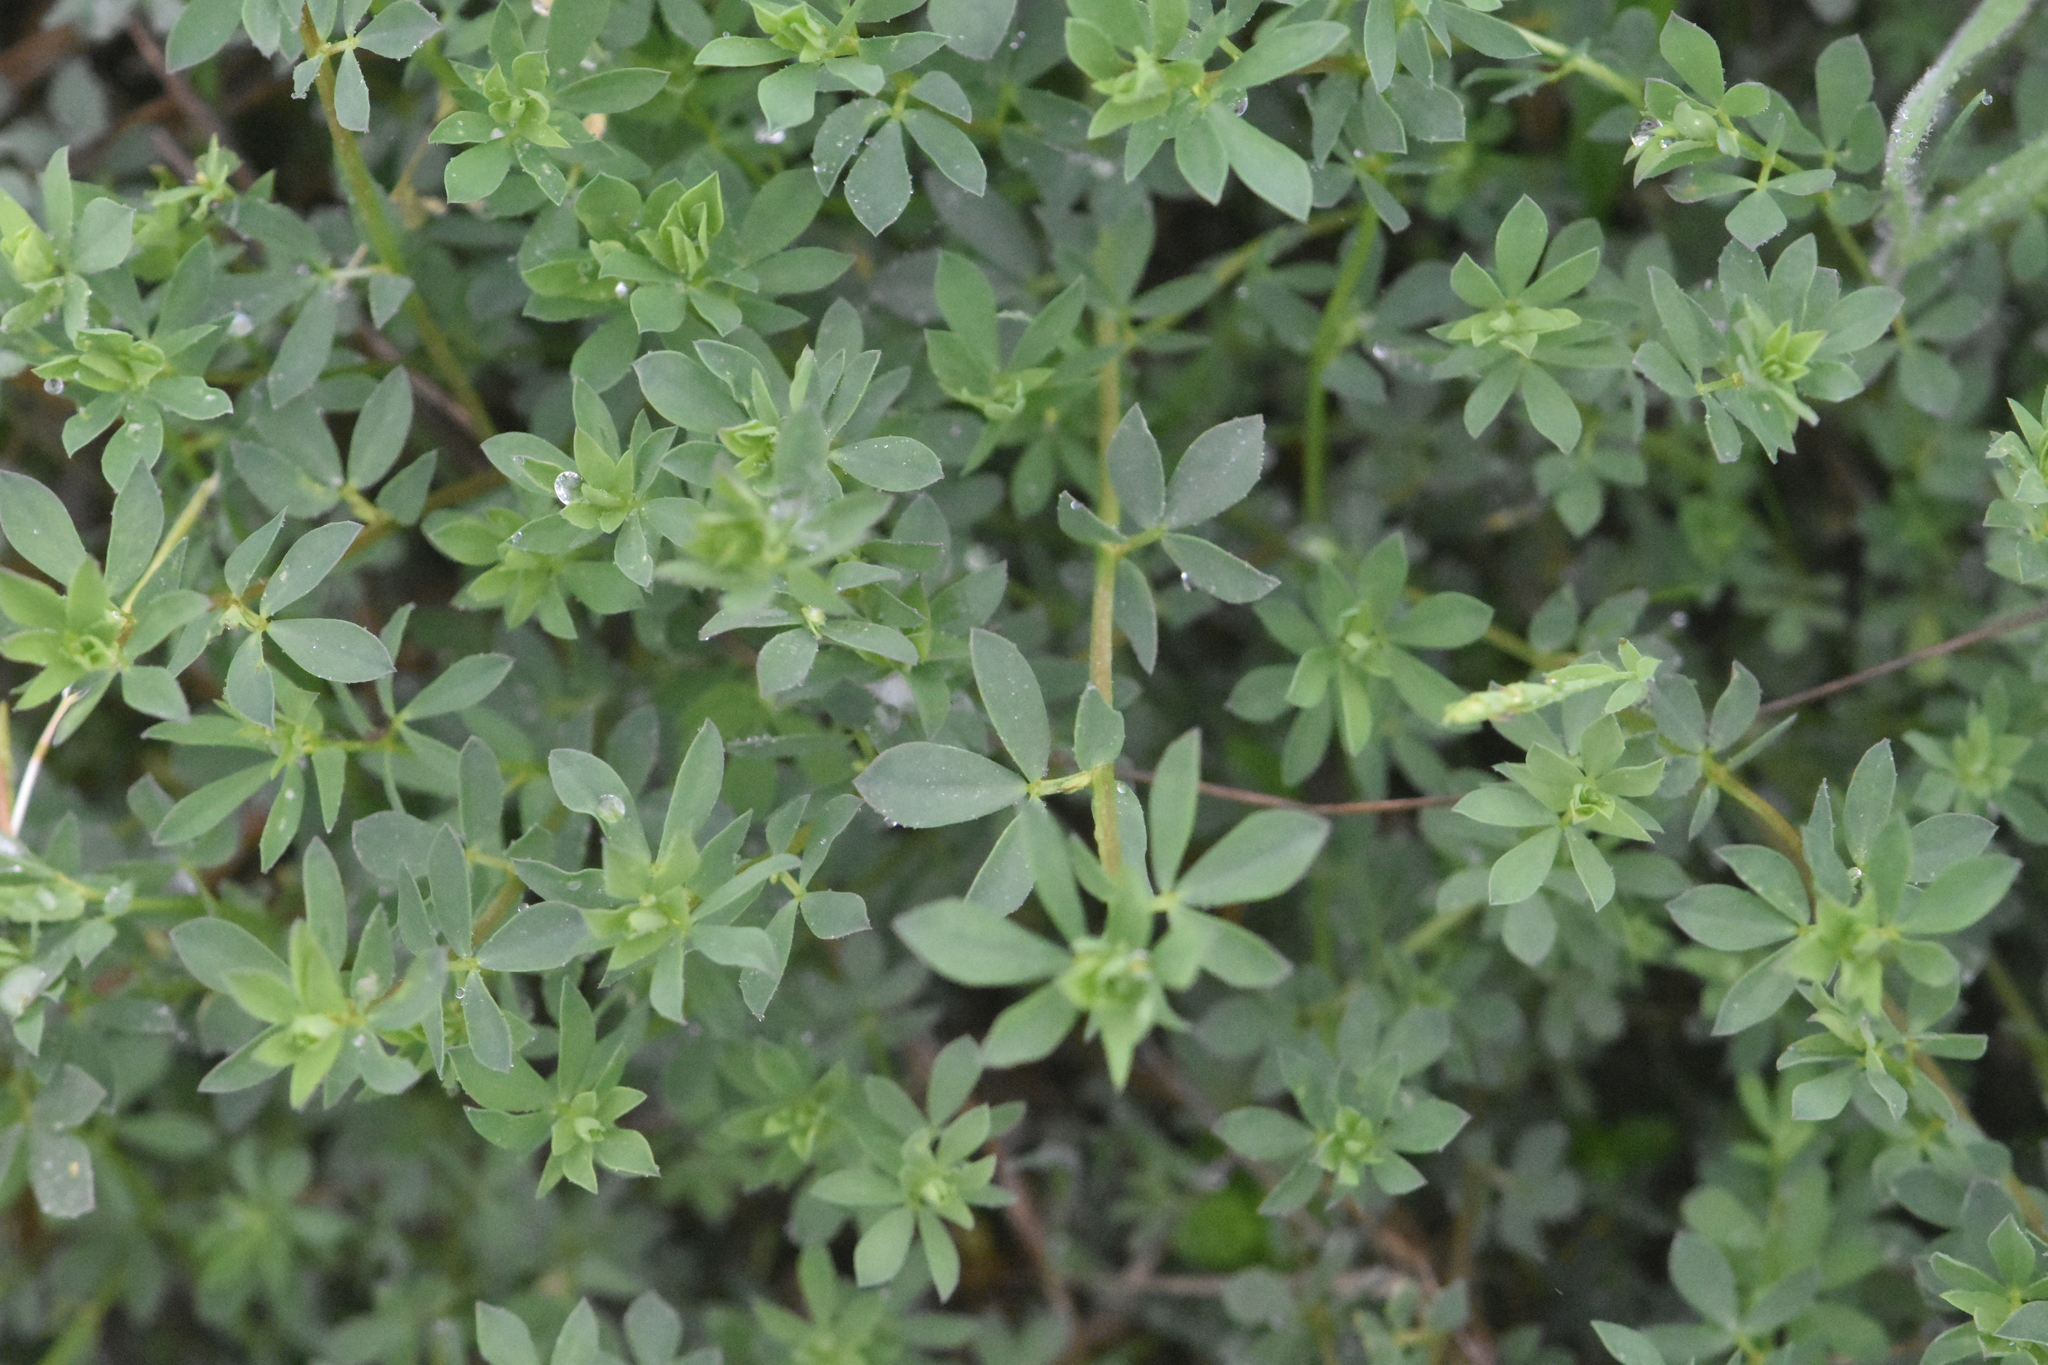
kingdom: Plantae
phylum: Tracheophyta
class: Magnoliopsida
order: Fabales
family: Fabaceae
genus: Lotus
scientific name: Lotus herbaceus
